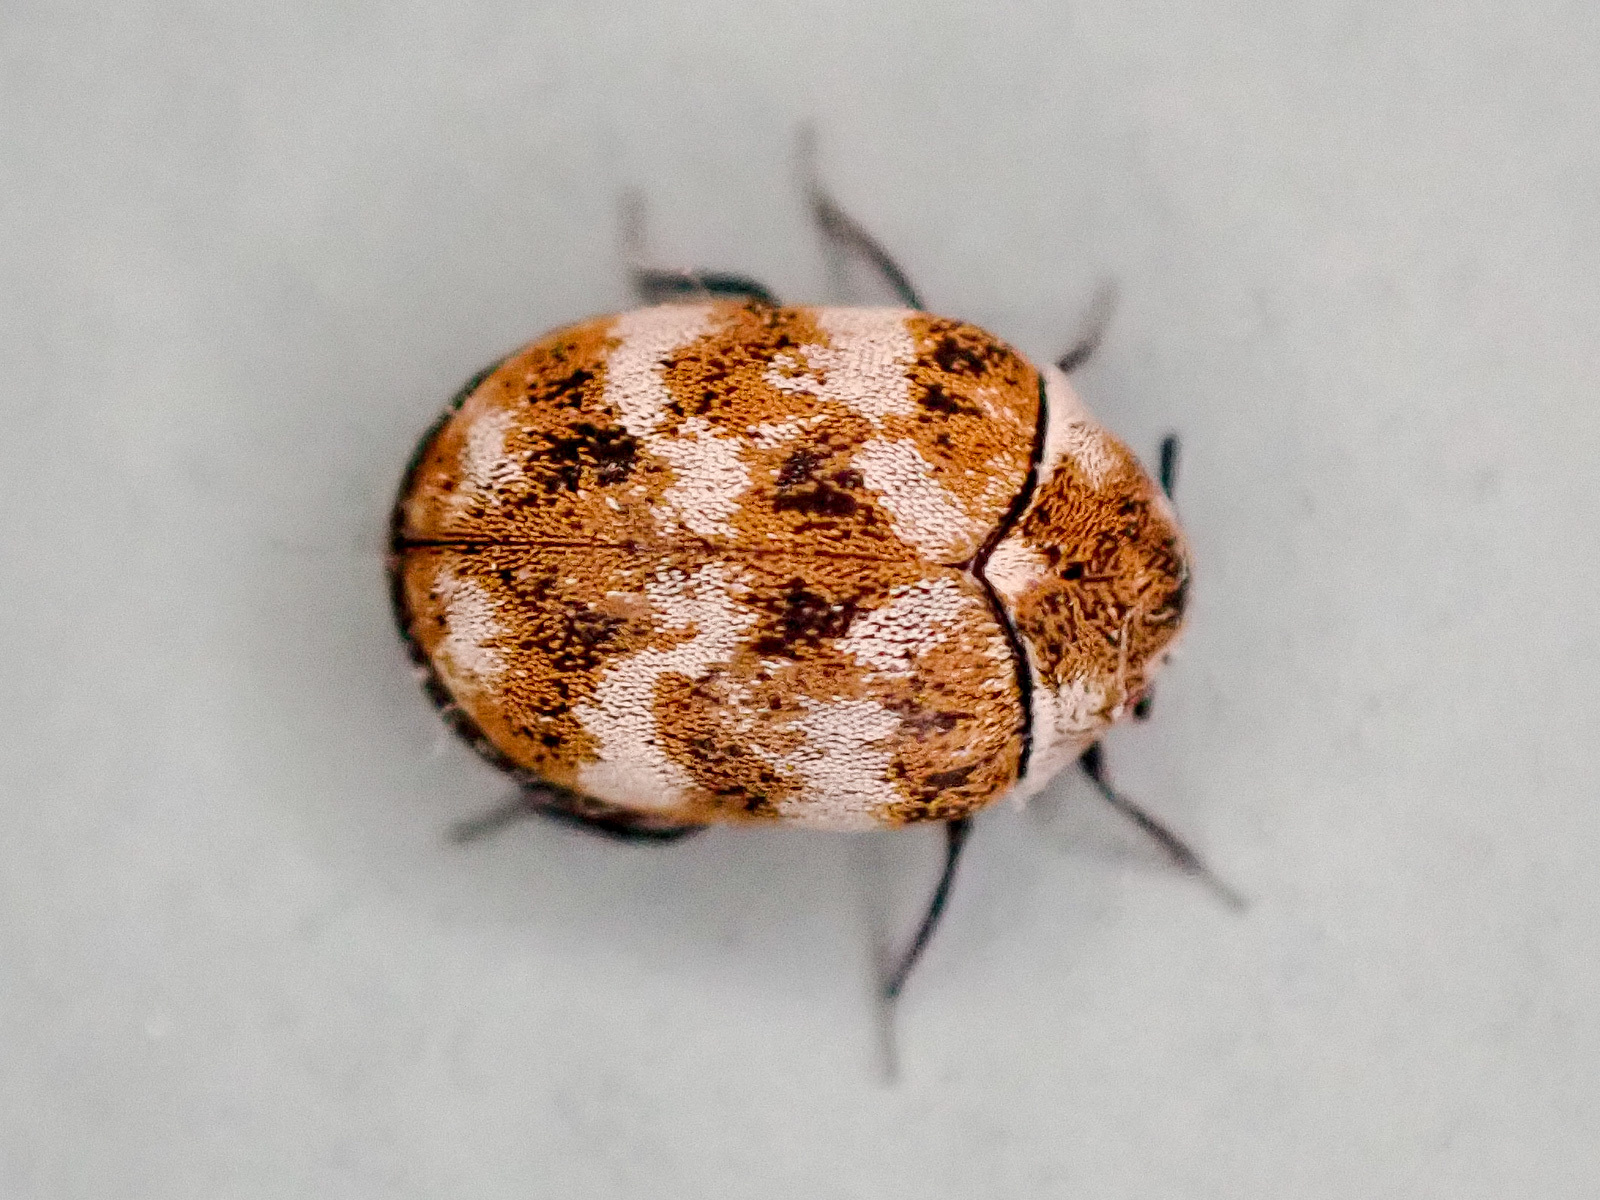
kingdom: Animalia
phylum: Arthropoda
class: Insecta
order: Coleoptera
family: Dermestidae
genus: Anthrenus
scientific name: Anthrenus verbasci
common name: Varied carpet beetle
